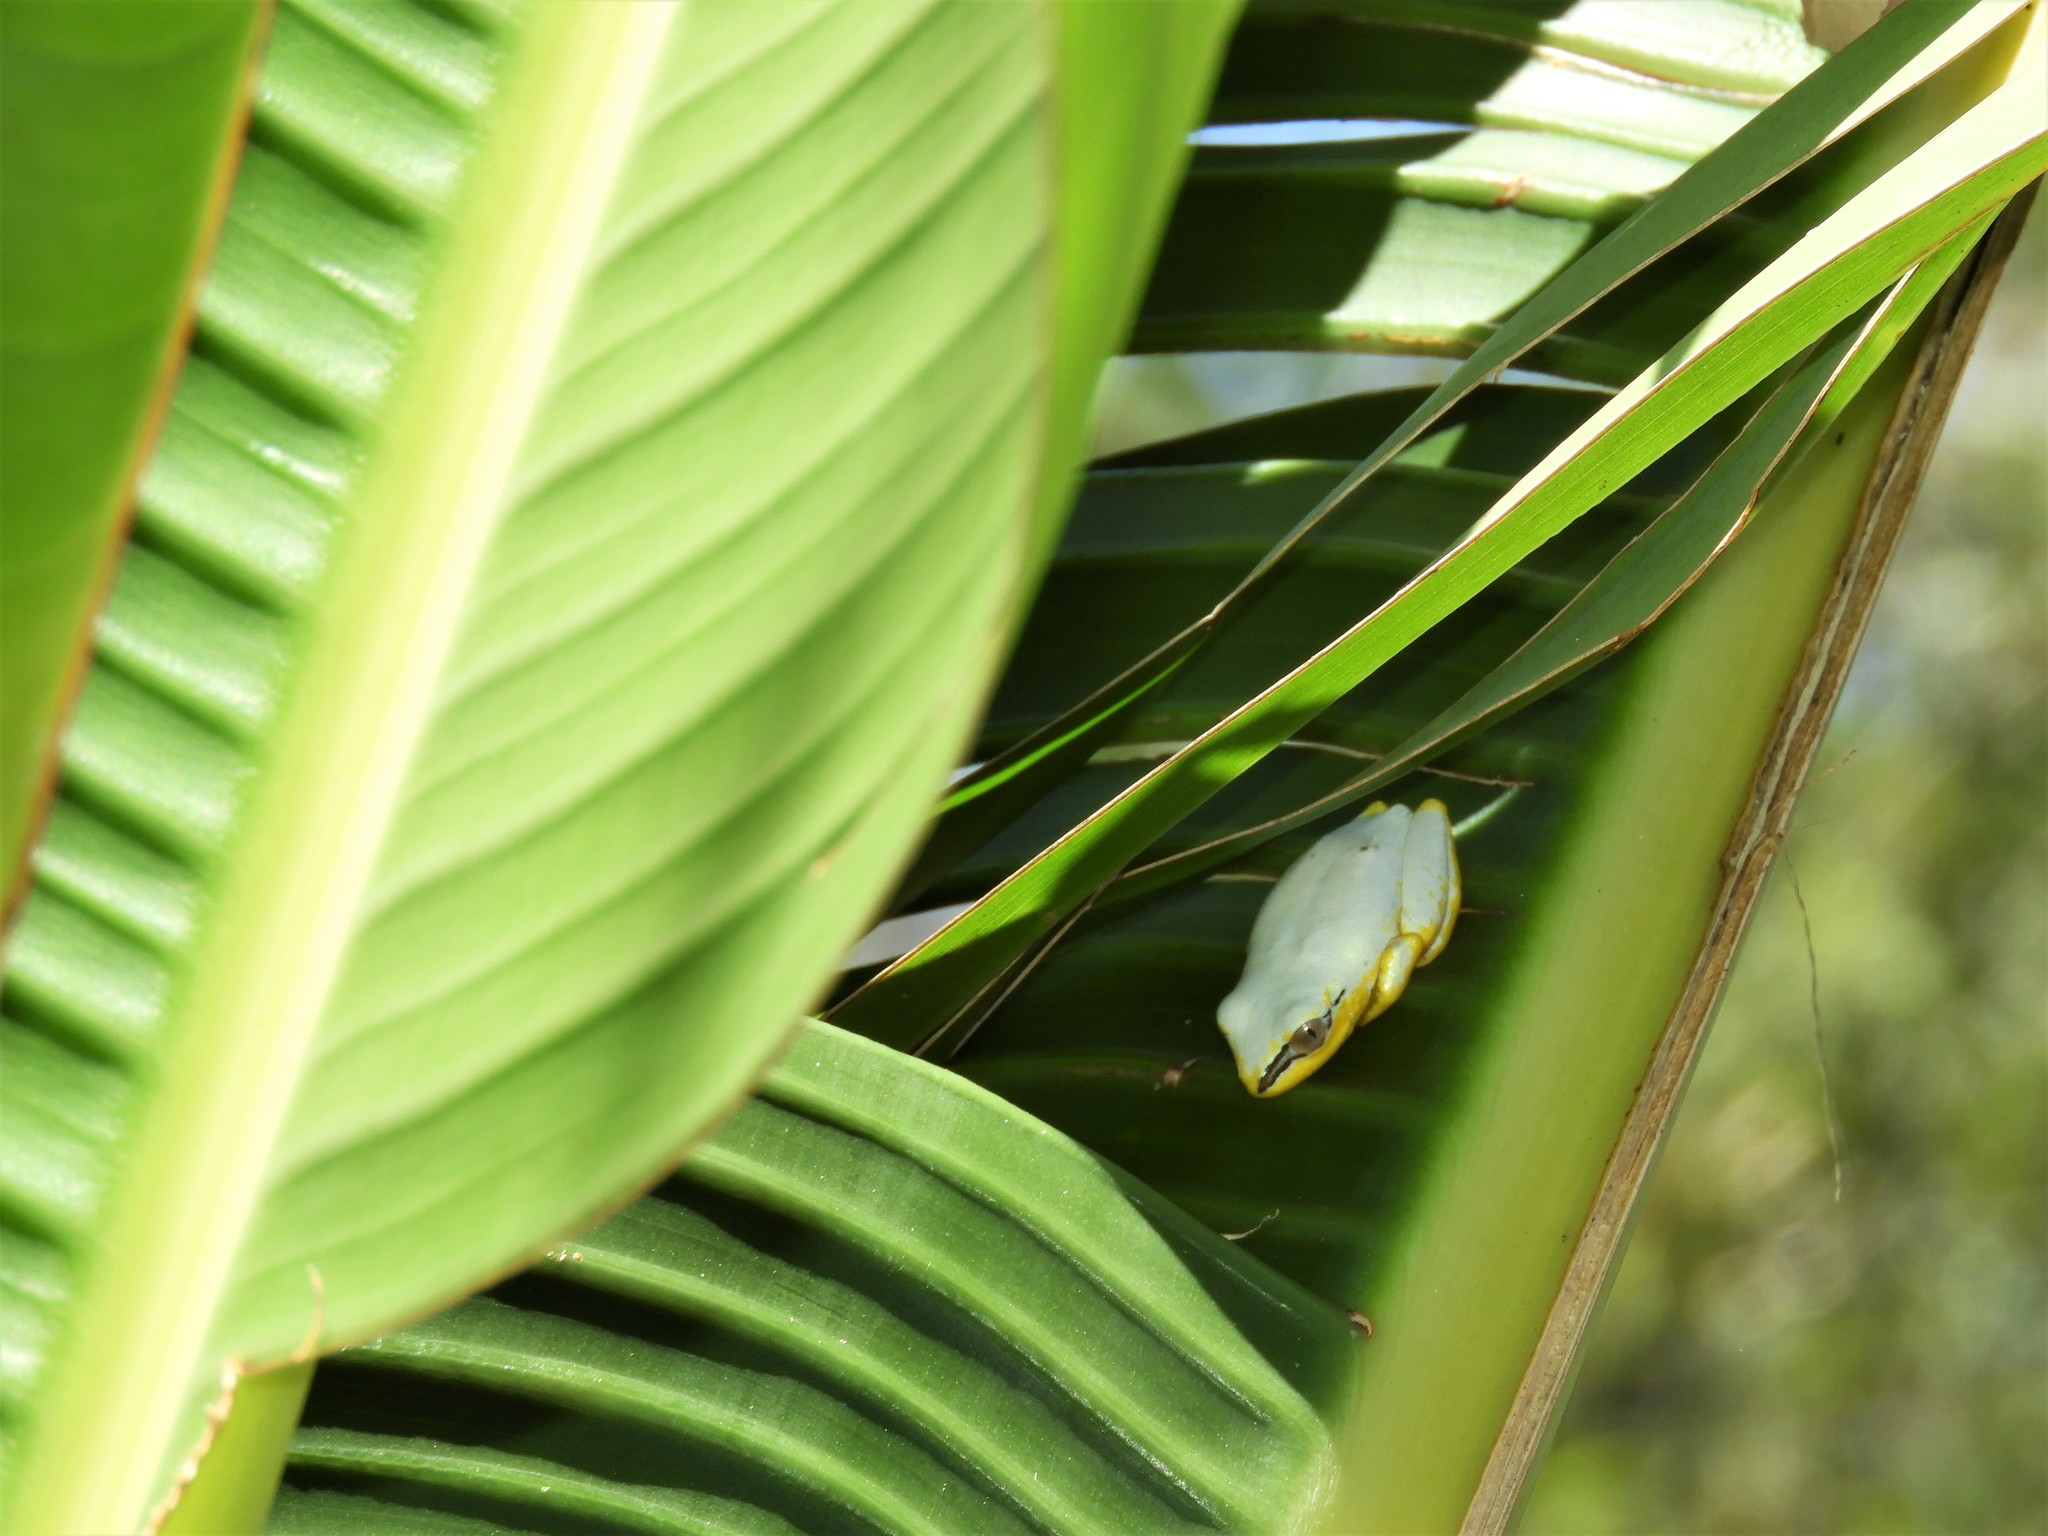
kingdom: Animalia
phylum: Chordata
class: Amphibia
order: Anura
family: Hyperoliidae
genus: Heterixalus
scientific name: Heterixalus madagascariensis
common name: Madagascar reed frog
